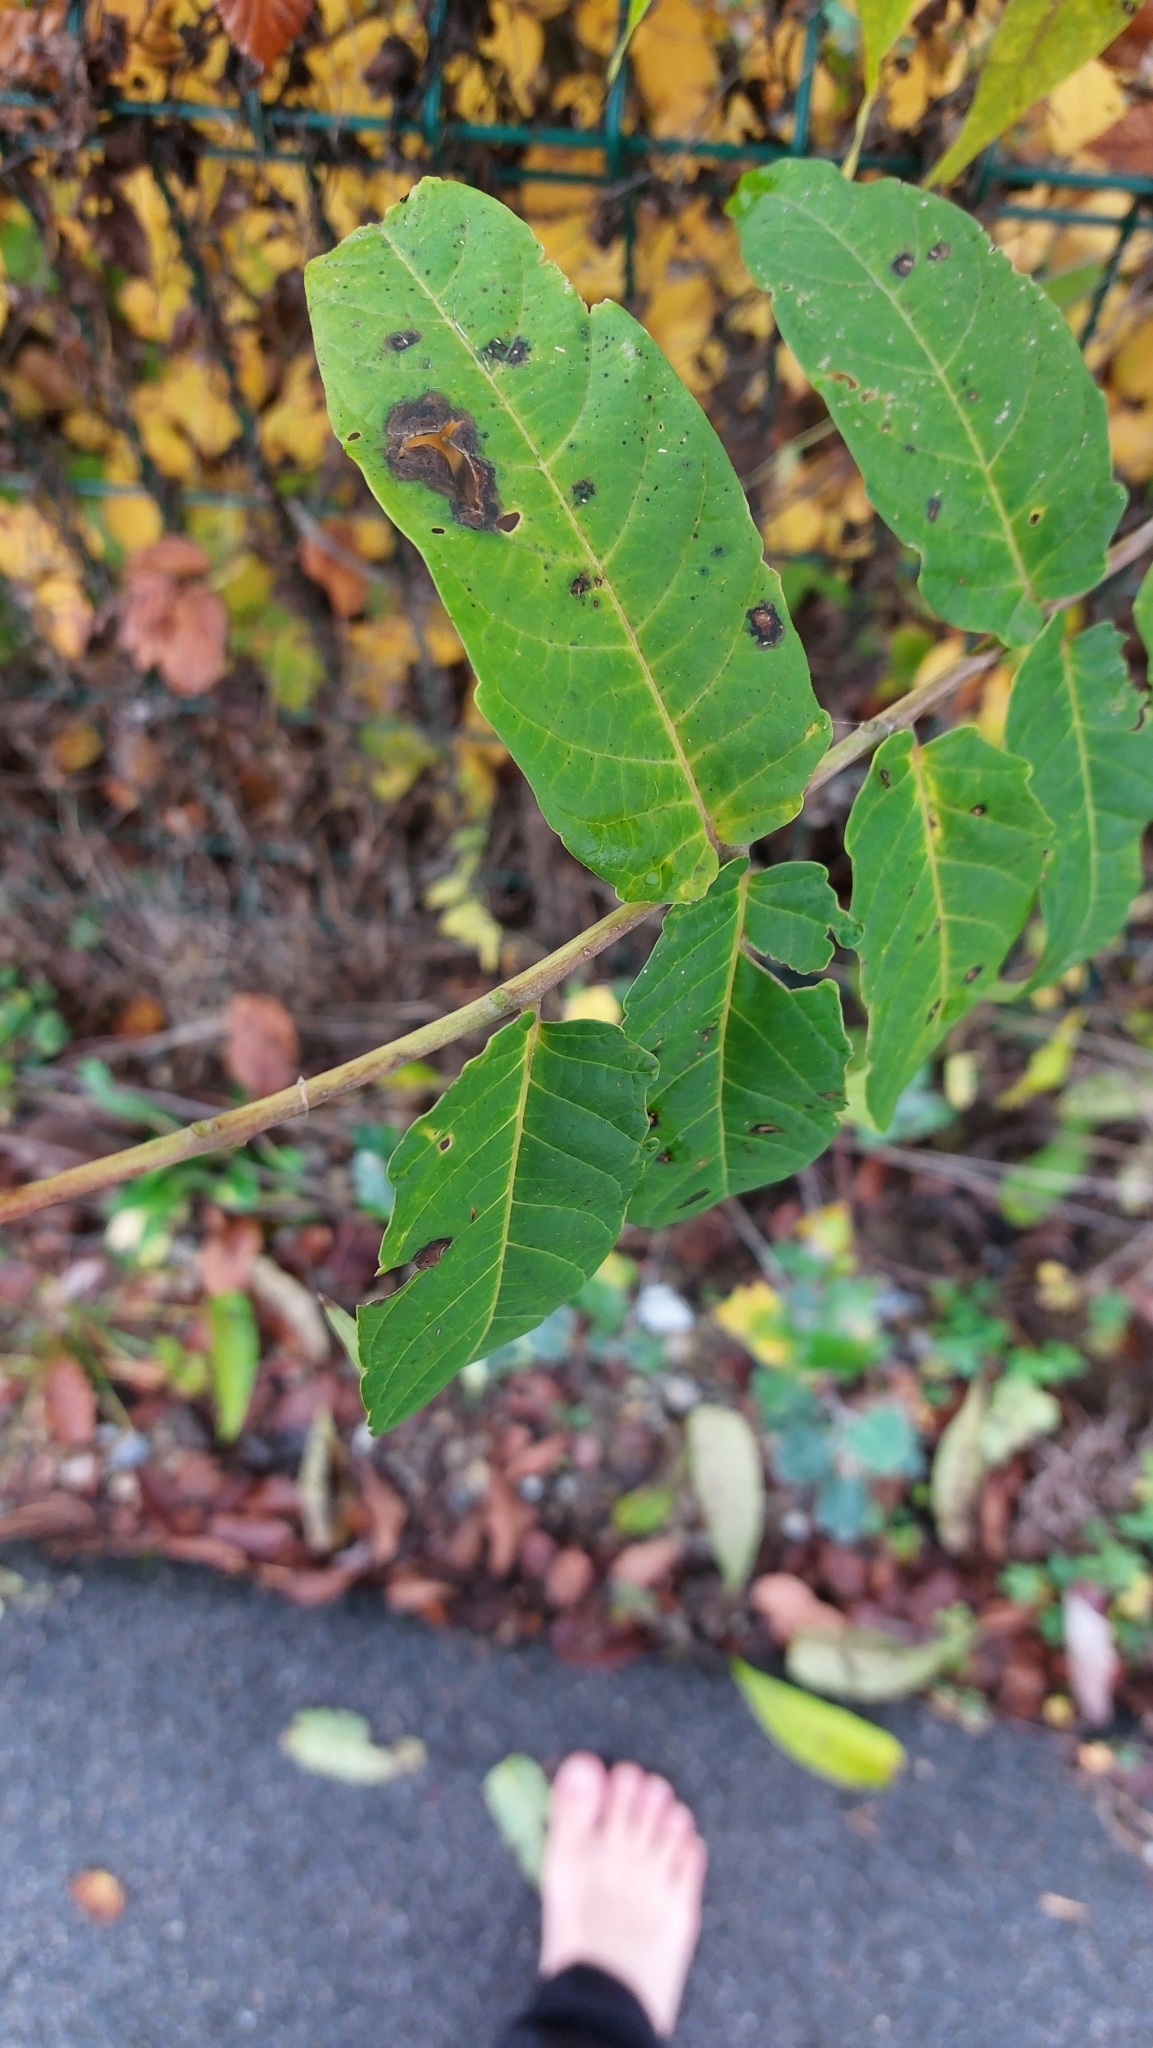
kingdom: Plantae
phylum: Tracheophyta
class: Magnoliopsida
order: Sapindales
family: Simaroubaceae
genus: Ailanthus
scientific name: Ailanthus altissima
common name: Tree-of-heaven
